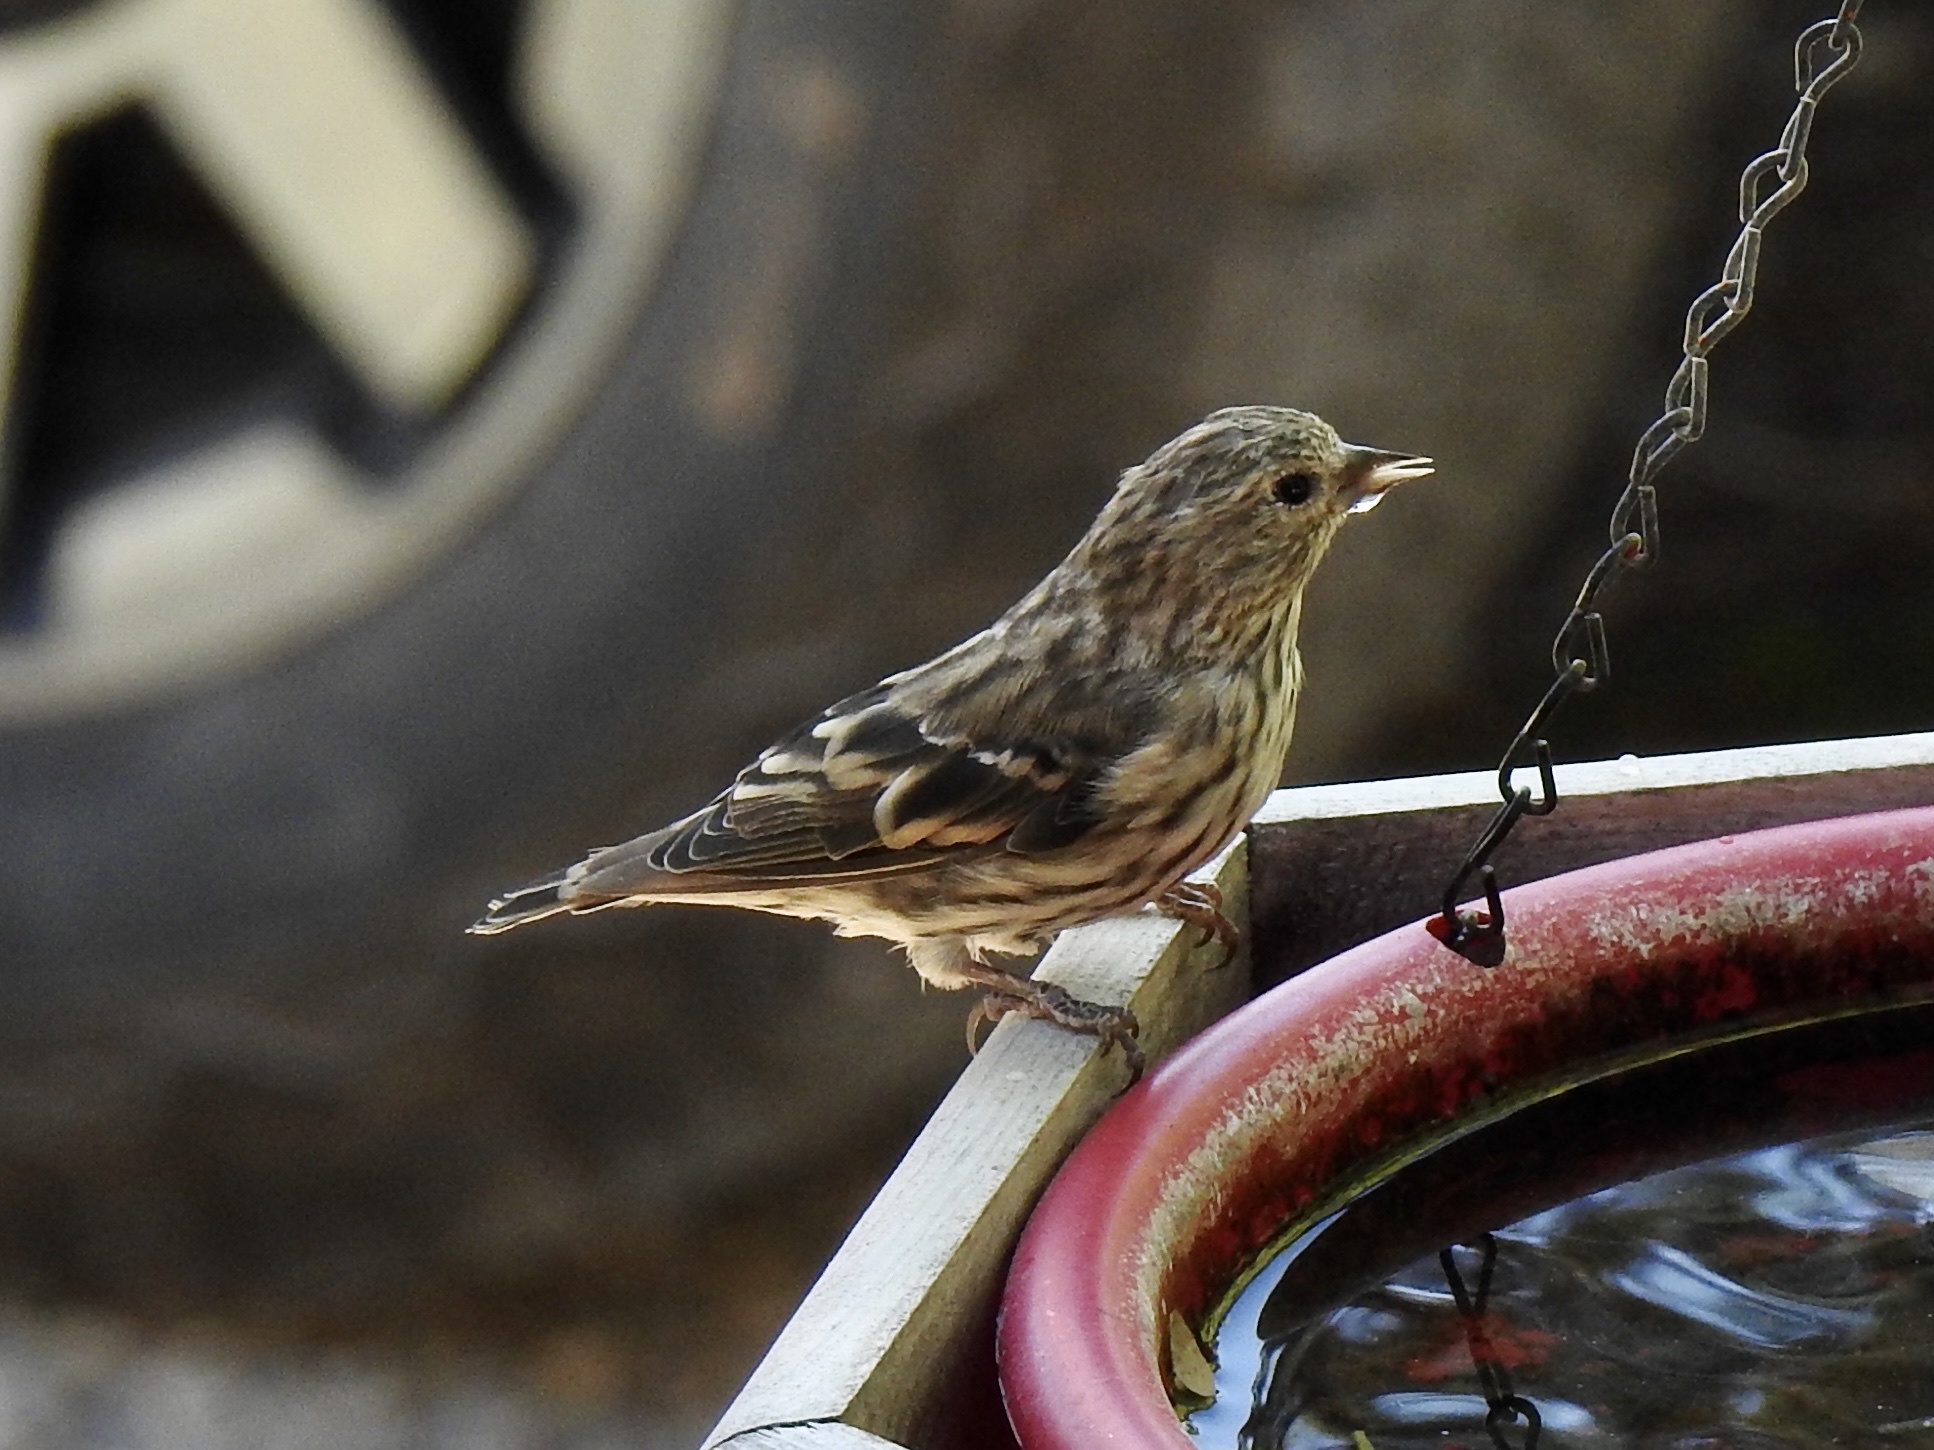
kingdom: Animalia
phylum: Chordata
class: Aves
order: Passeriformes
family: Fringillidae
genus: Spinus
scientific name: Spinus pinus
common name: Pine siskin
